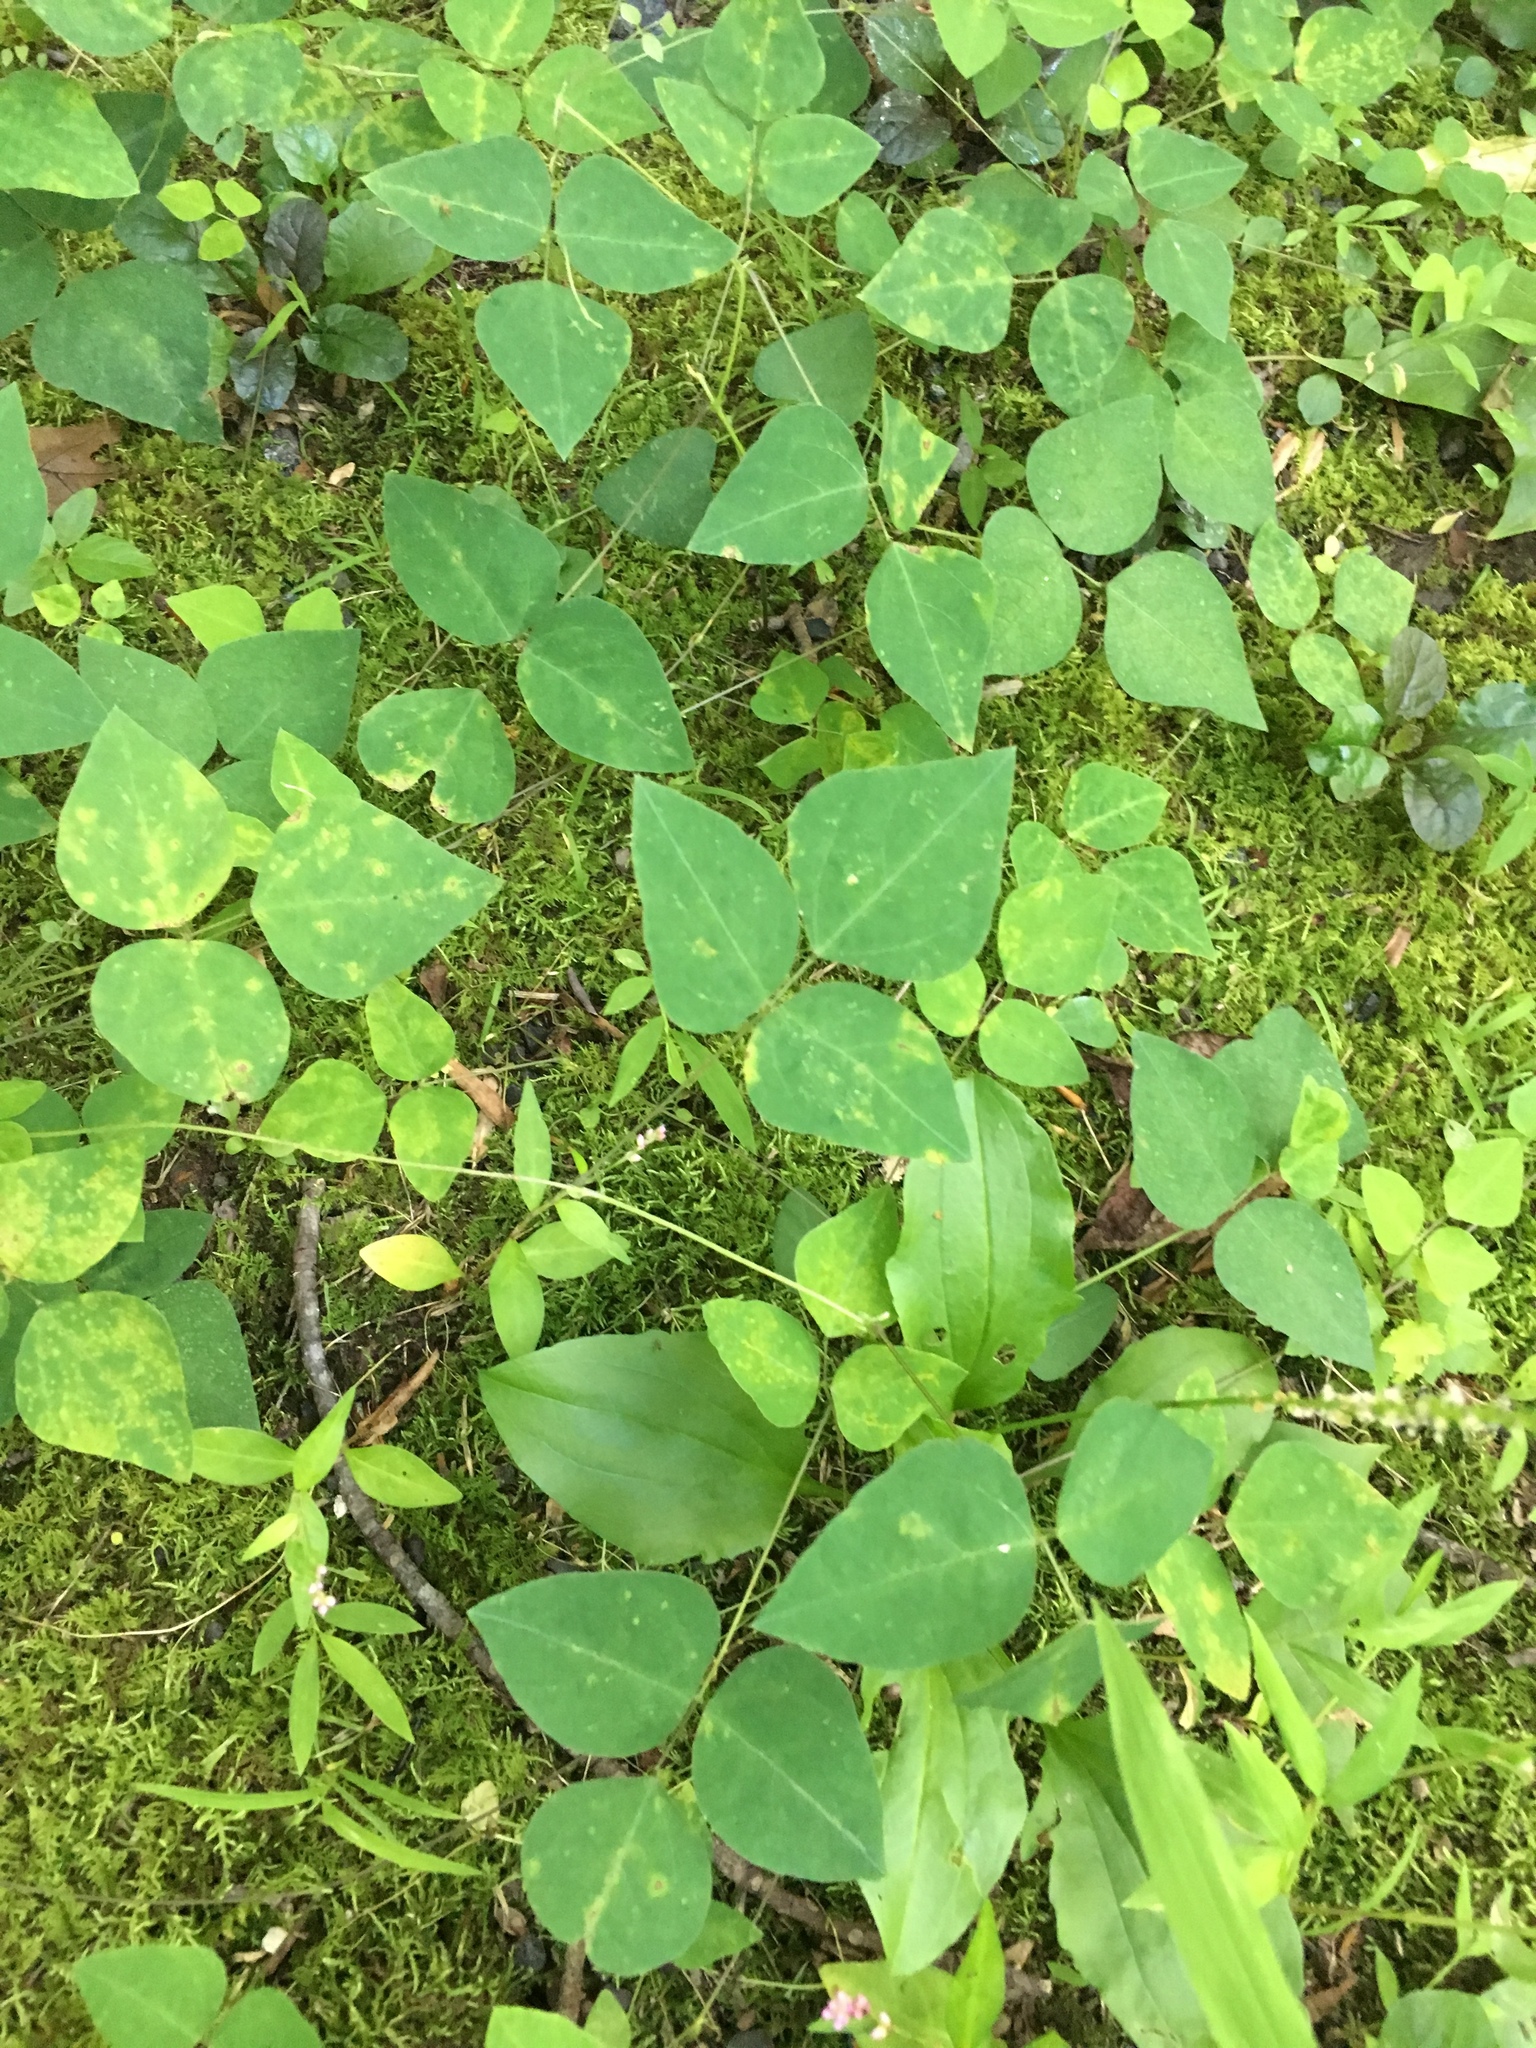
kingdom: Plantae
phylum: Tracheophyta
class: Magnoliopsida
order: Fabales
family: Fabaceae
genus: Amphicarpaea
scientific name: Amphicarpaea bracteata
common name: American hog peanut
